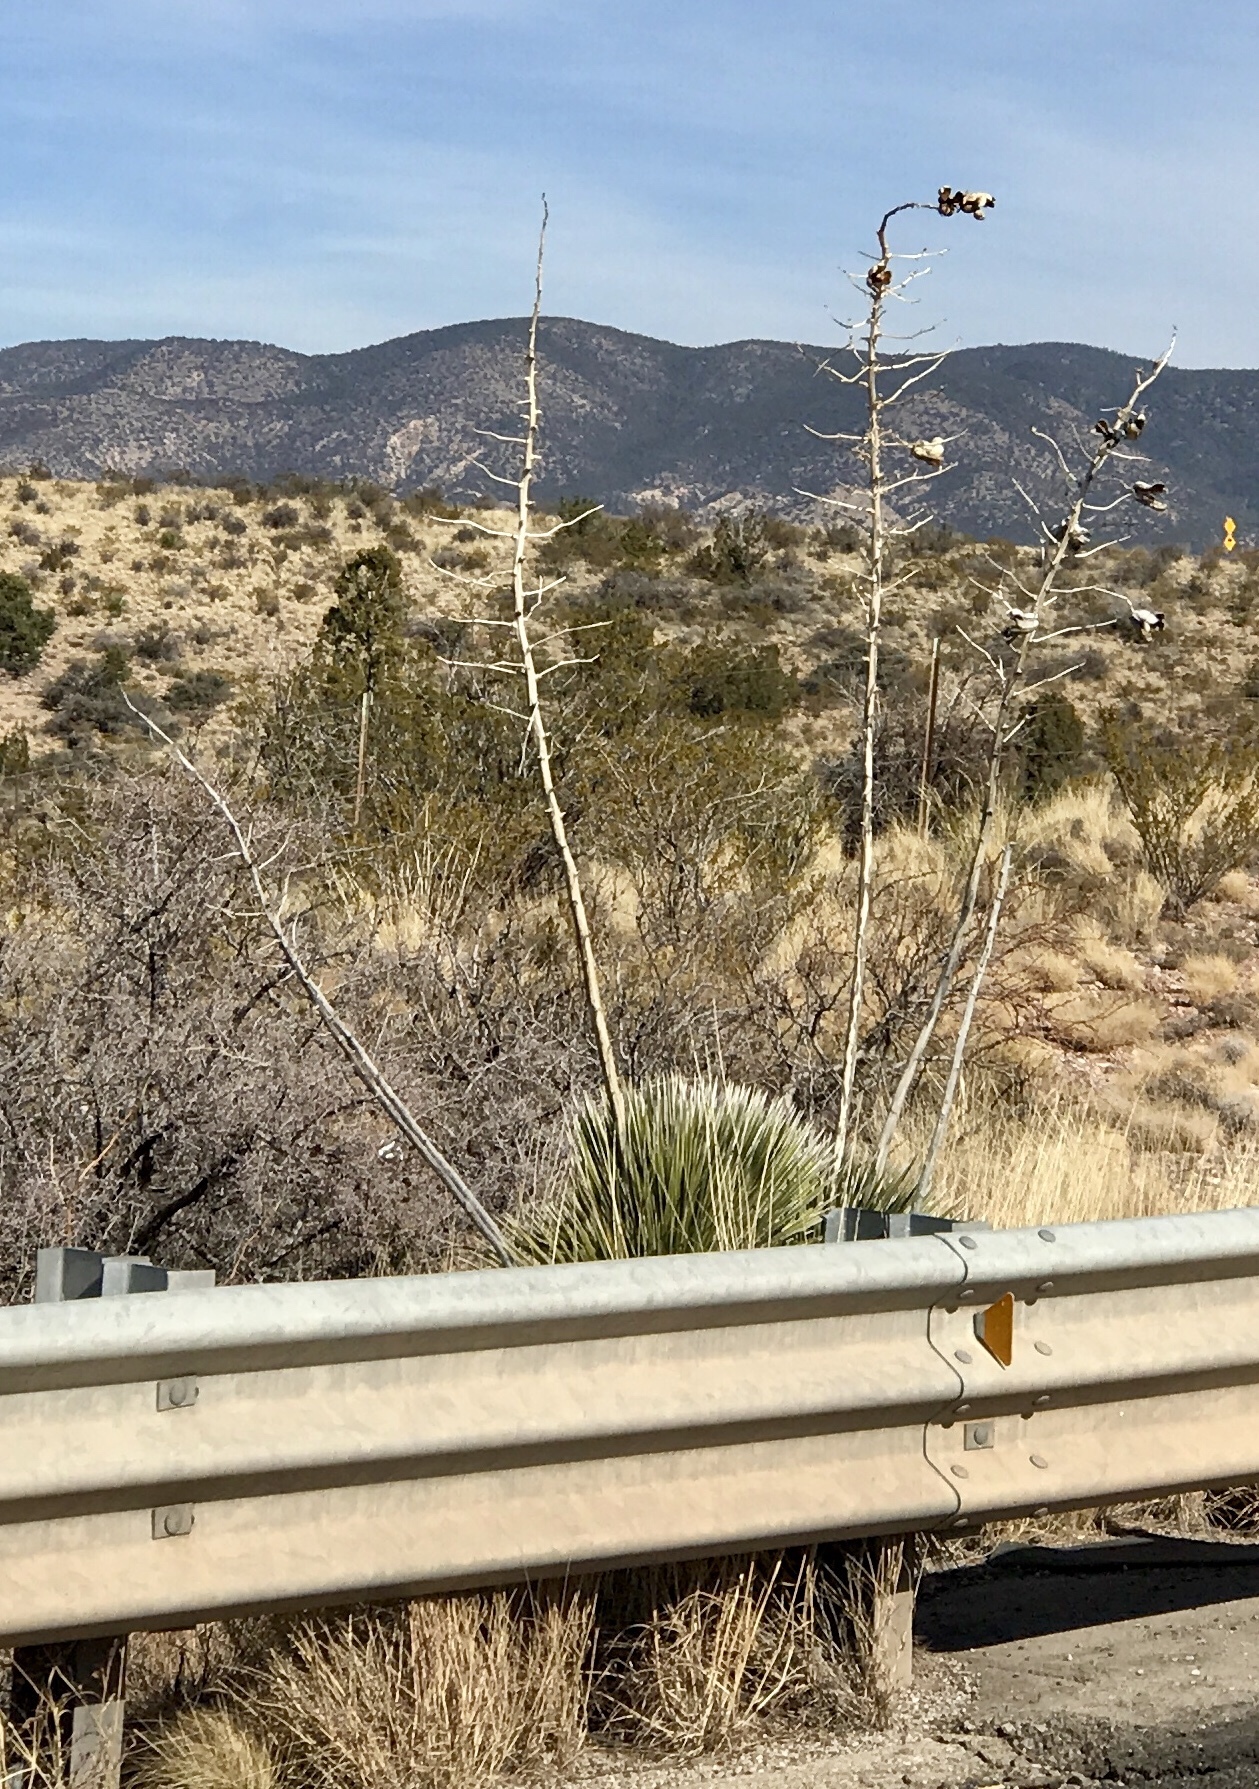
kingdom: Plantae
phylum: Tracheophyta
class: Liliopsida
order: Asparagales
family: Asparagaceae
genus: Yucca
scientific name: Yucca elata
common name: Palmella
